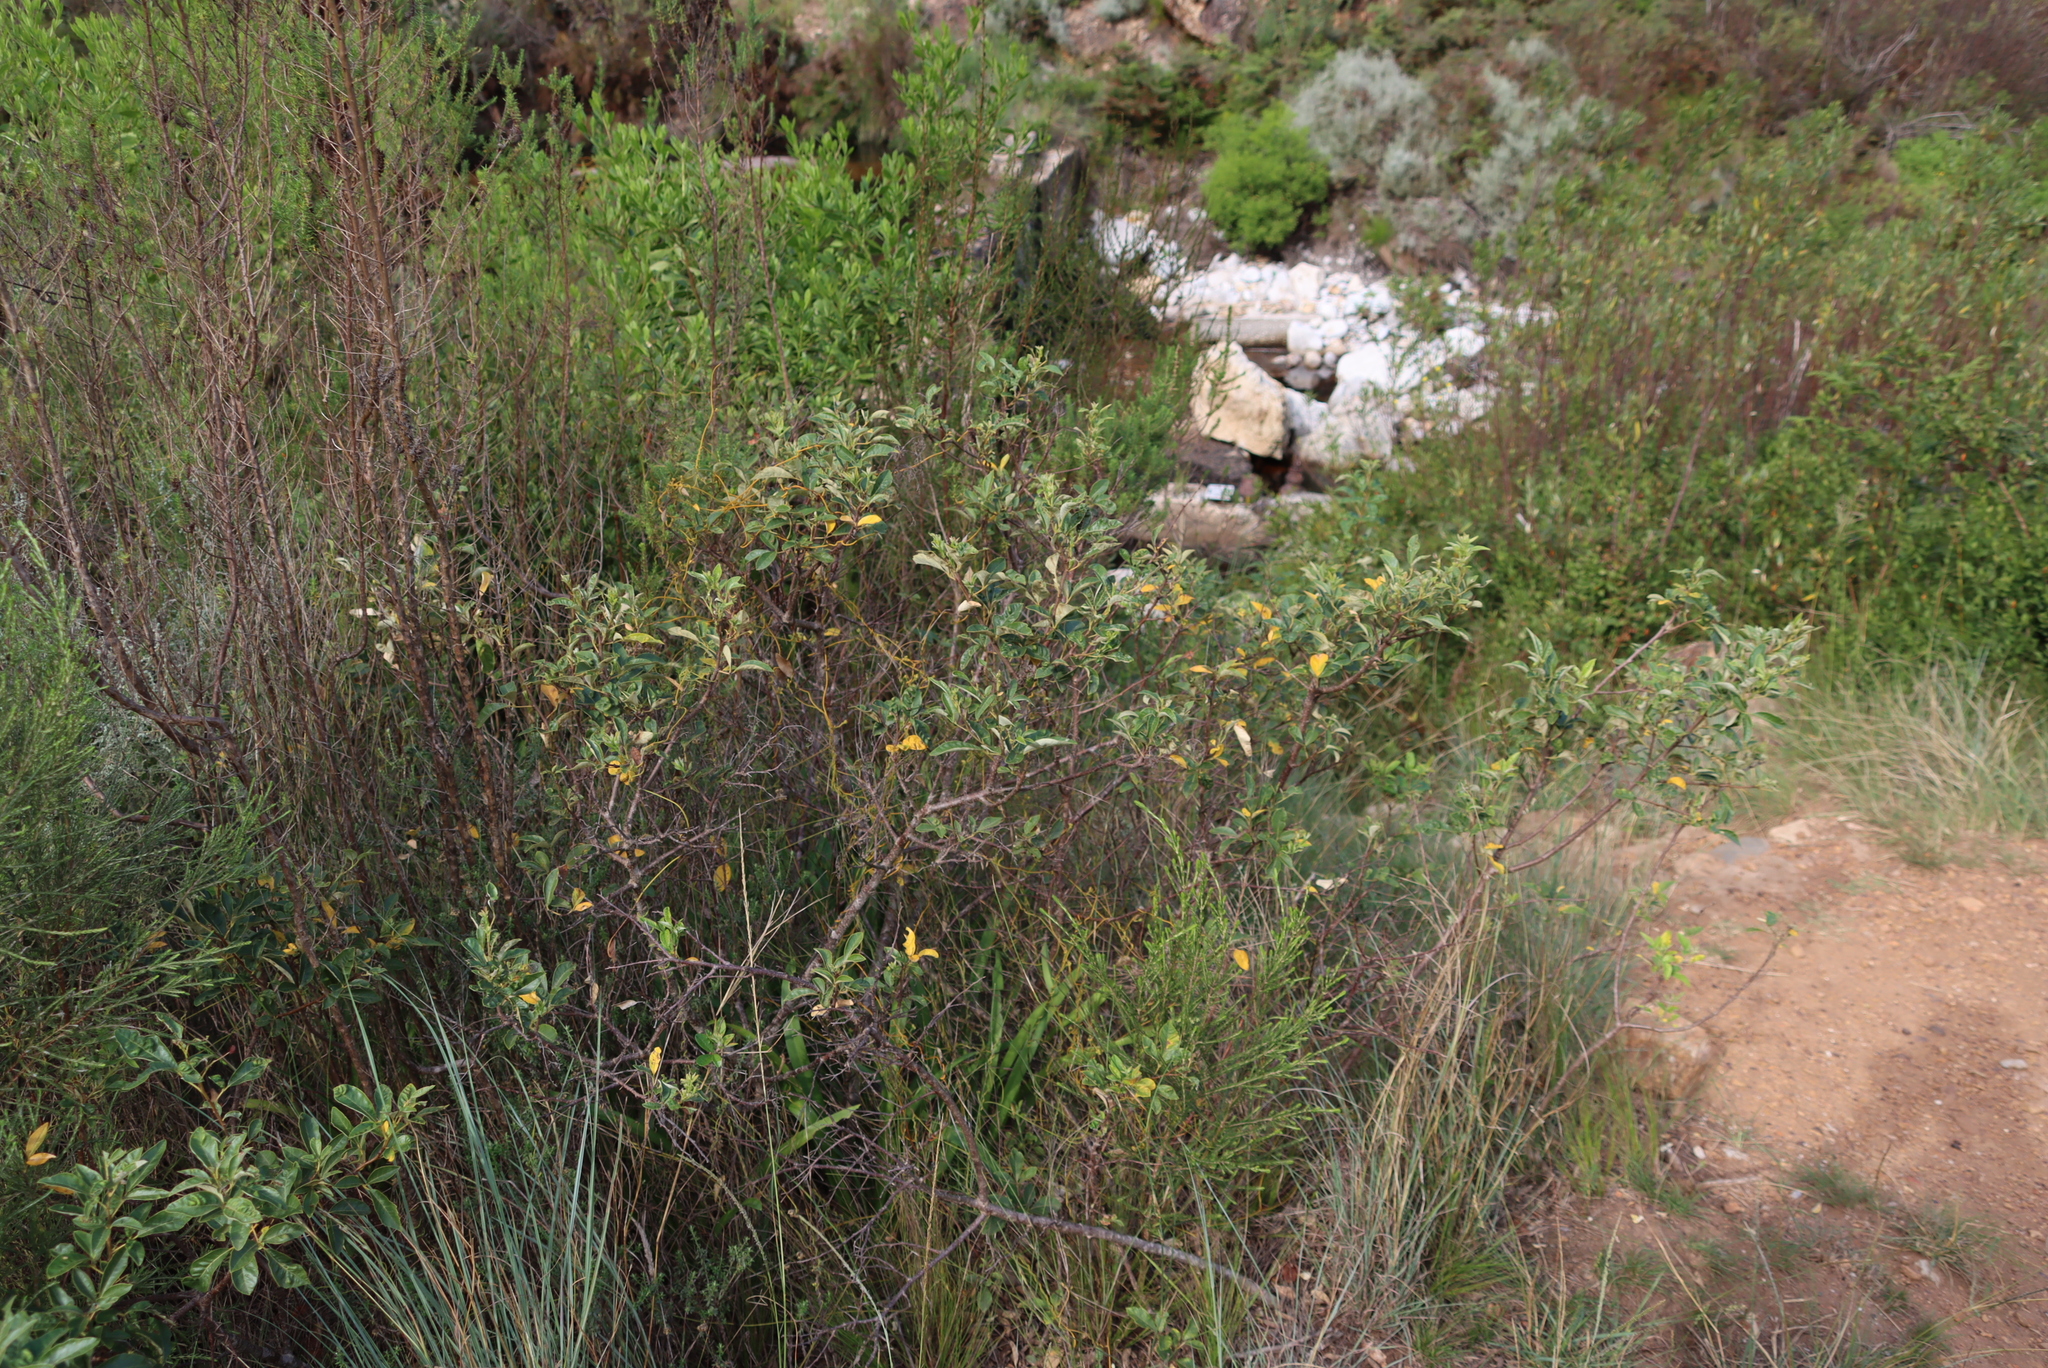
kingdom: Plantae
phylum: Tracheophyta
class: Magnoliopsida
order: Sapindales
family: Anacardiaceae
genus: Searsia
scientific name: Searsia tomentosa
